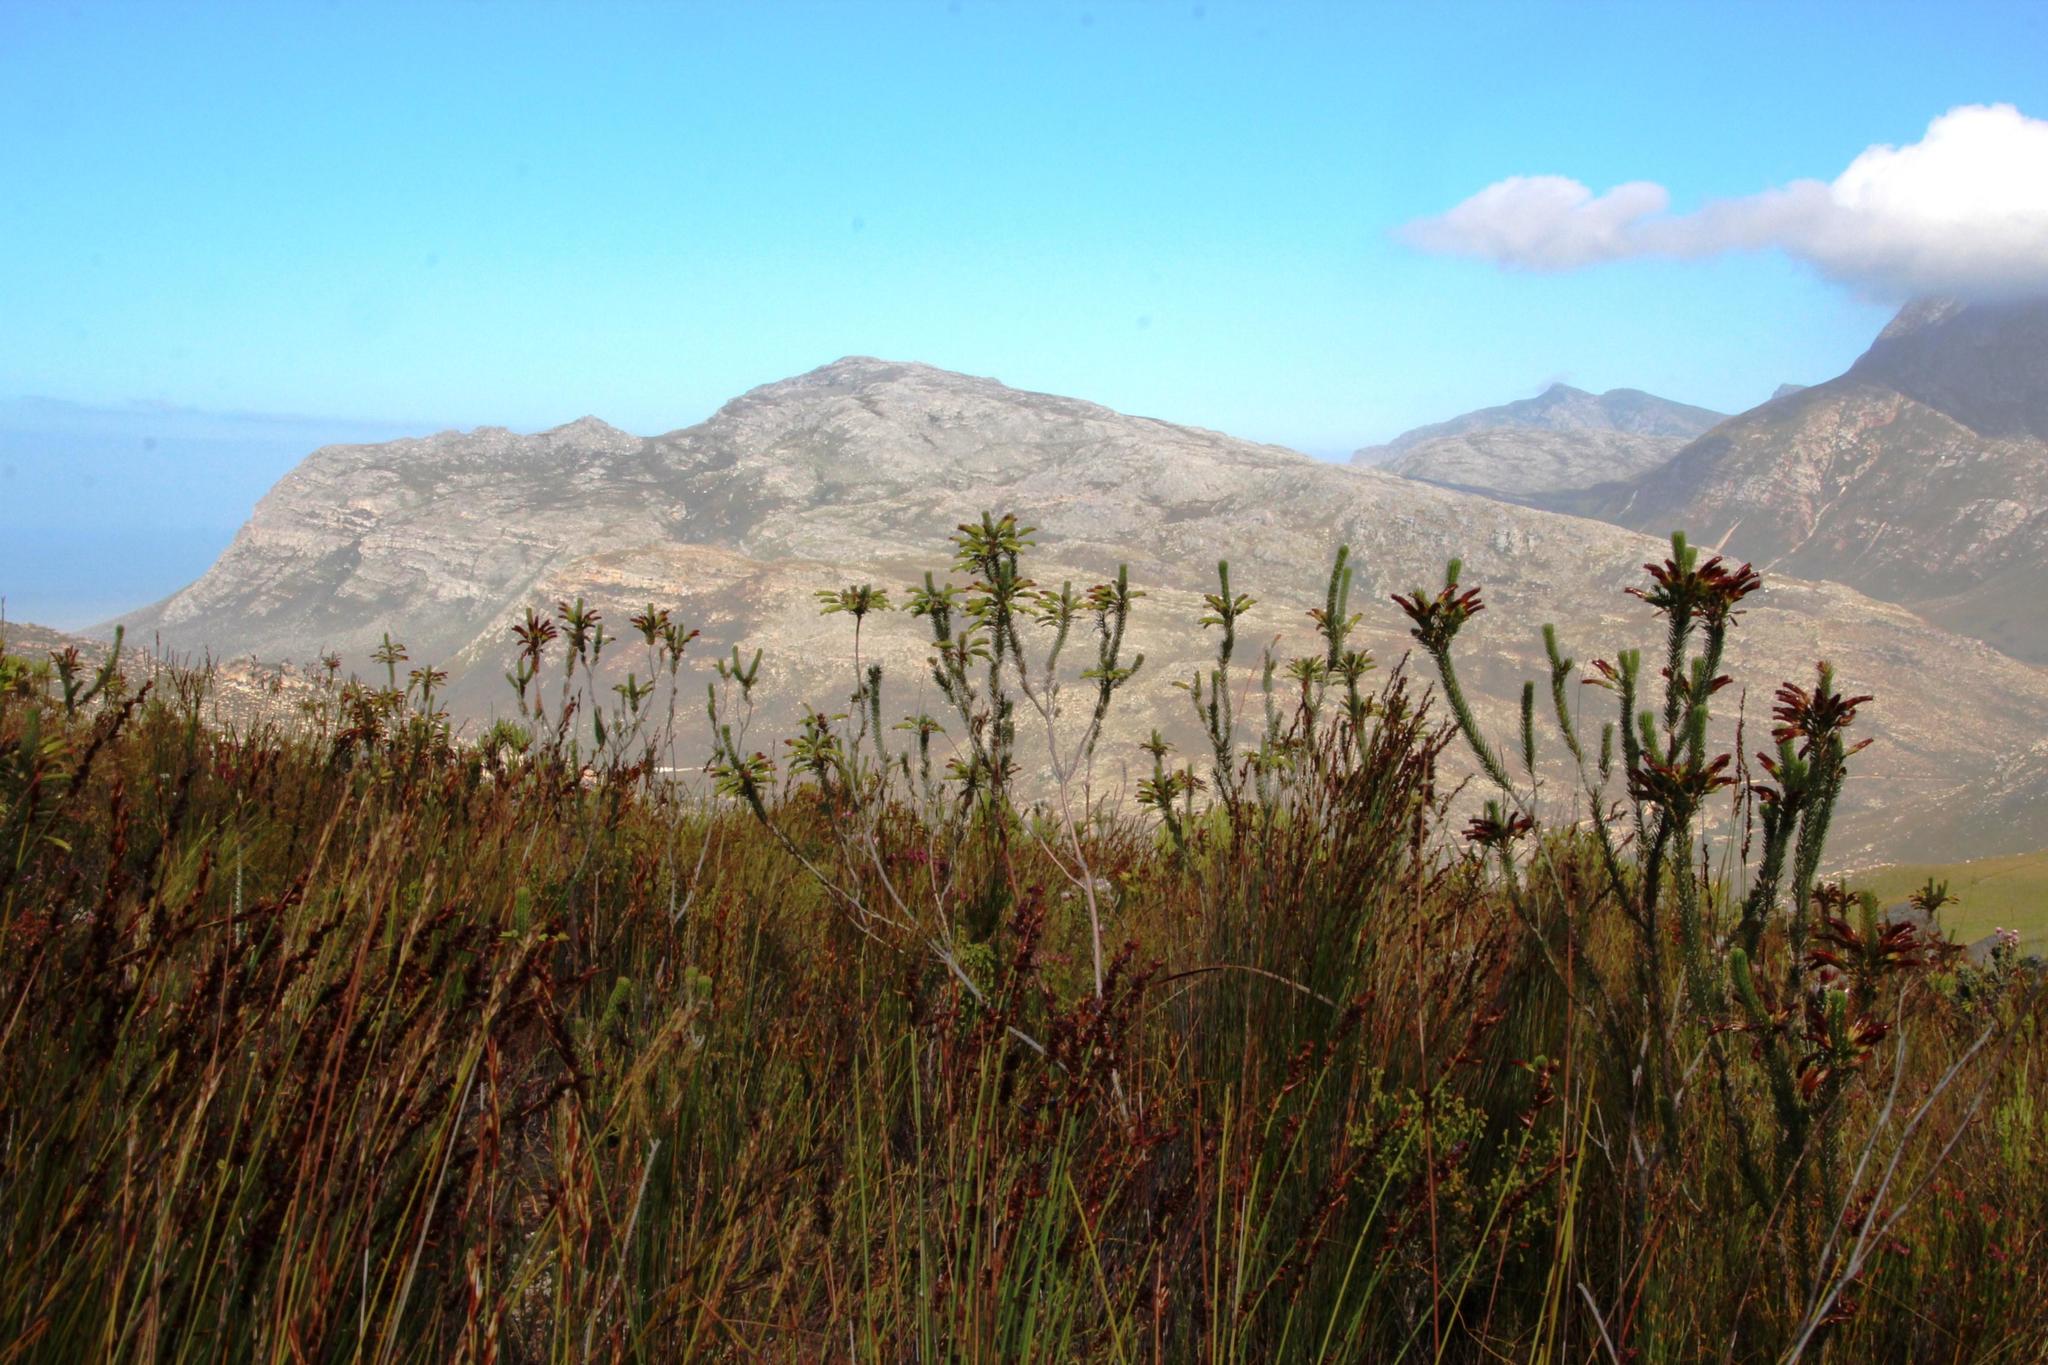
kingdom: Plantae
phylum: Tracheophyta
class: Magnoliopsida
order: Ericales
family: Ericaceae
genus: Erica
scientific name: Erica thomae
